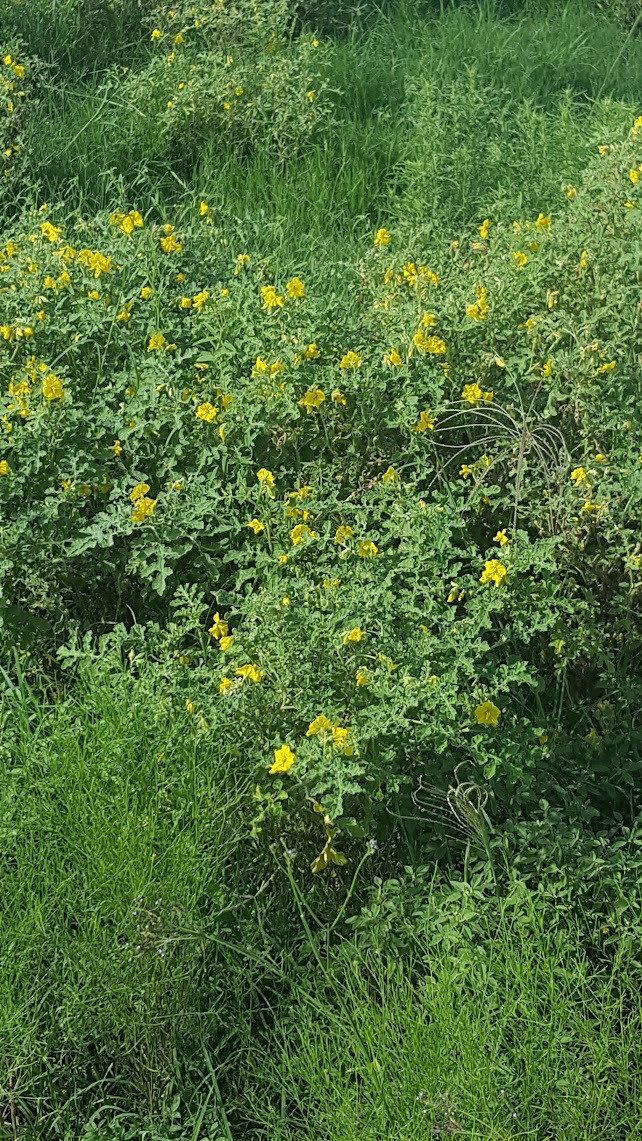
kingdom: Plantae
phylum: Tracheophyta
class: Magnoliopsida
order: Solanales
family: Solanaceae
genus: Solanum
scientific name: Solanum angustifolium
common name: Buffalobur nightshade
